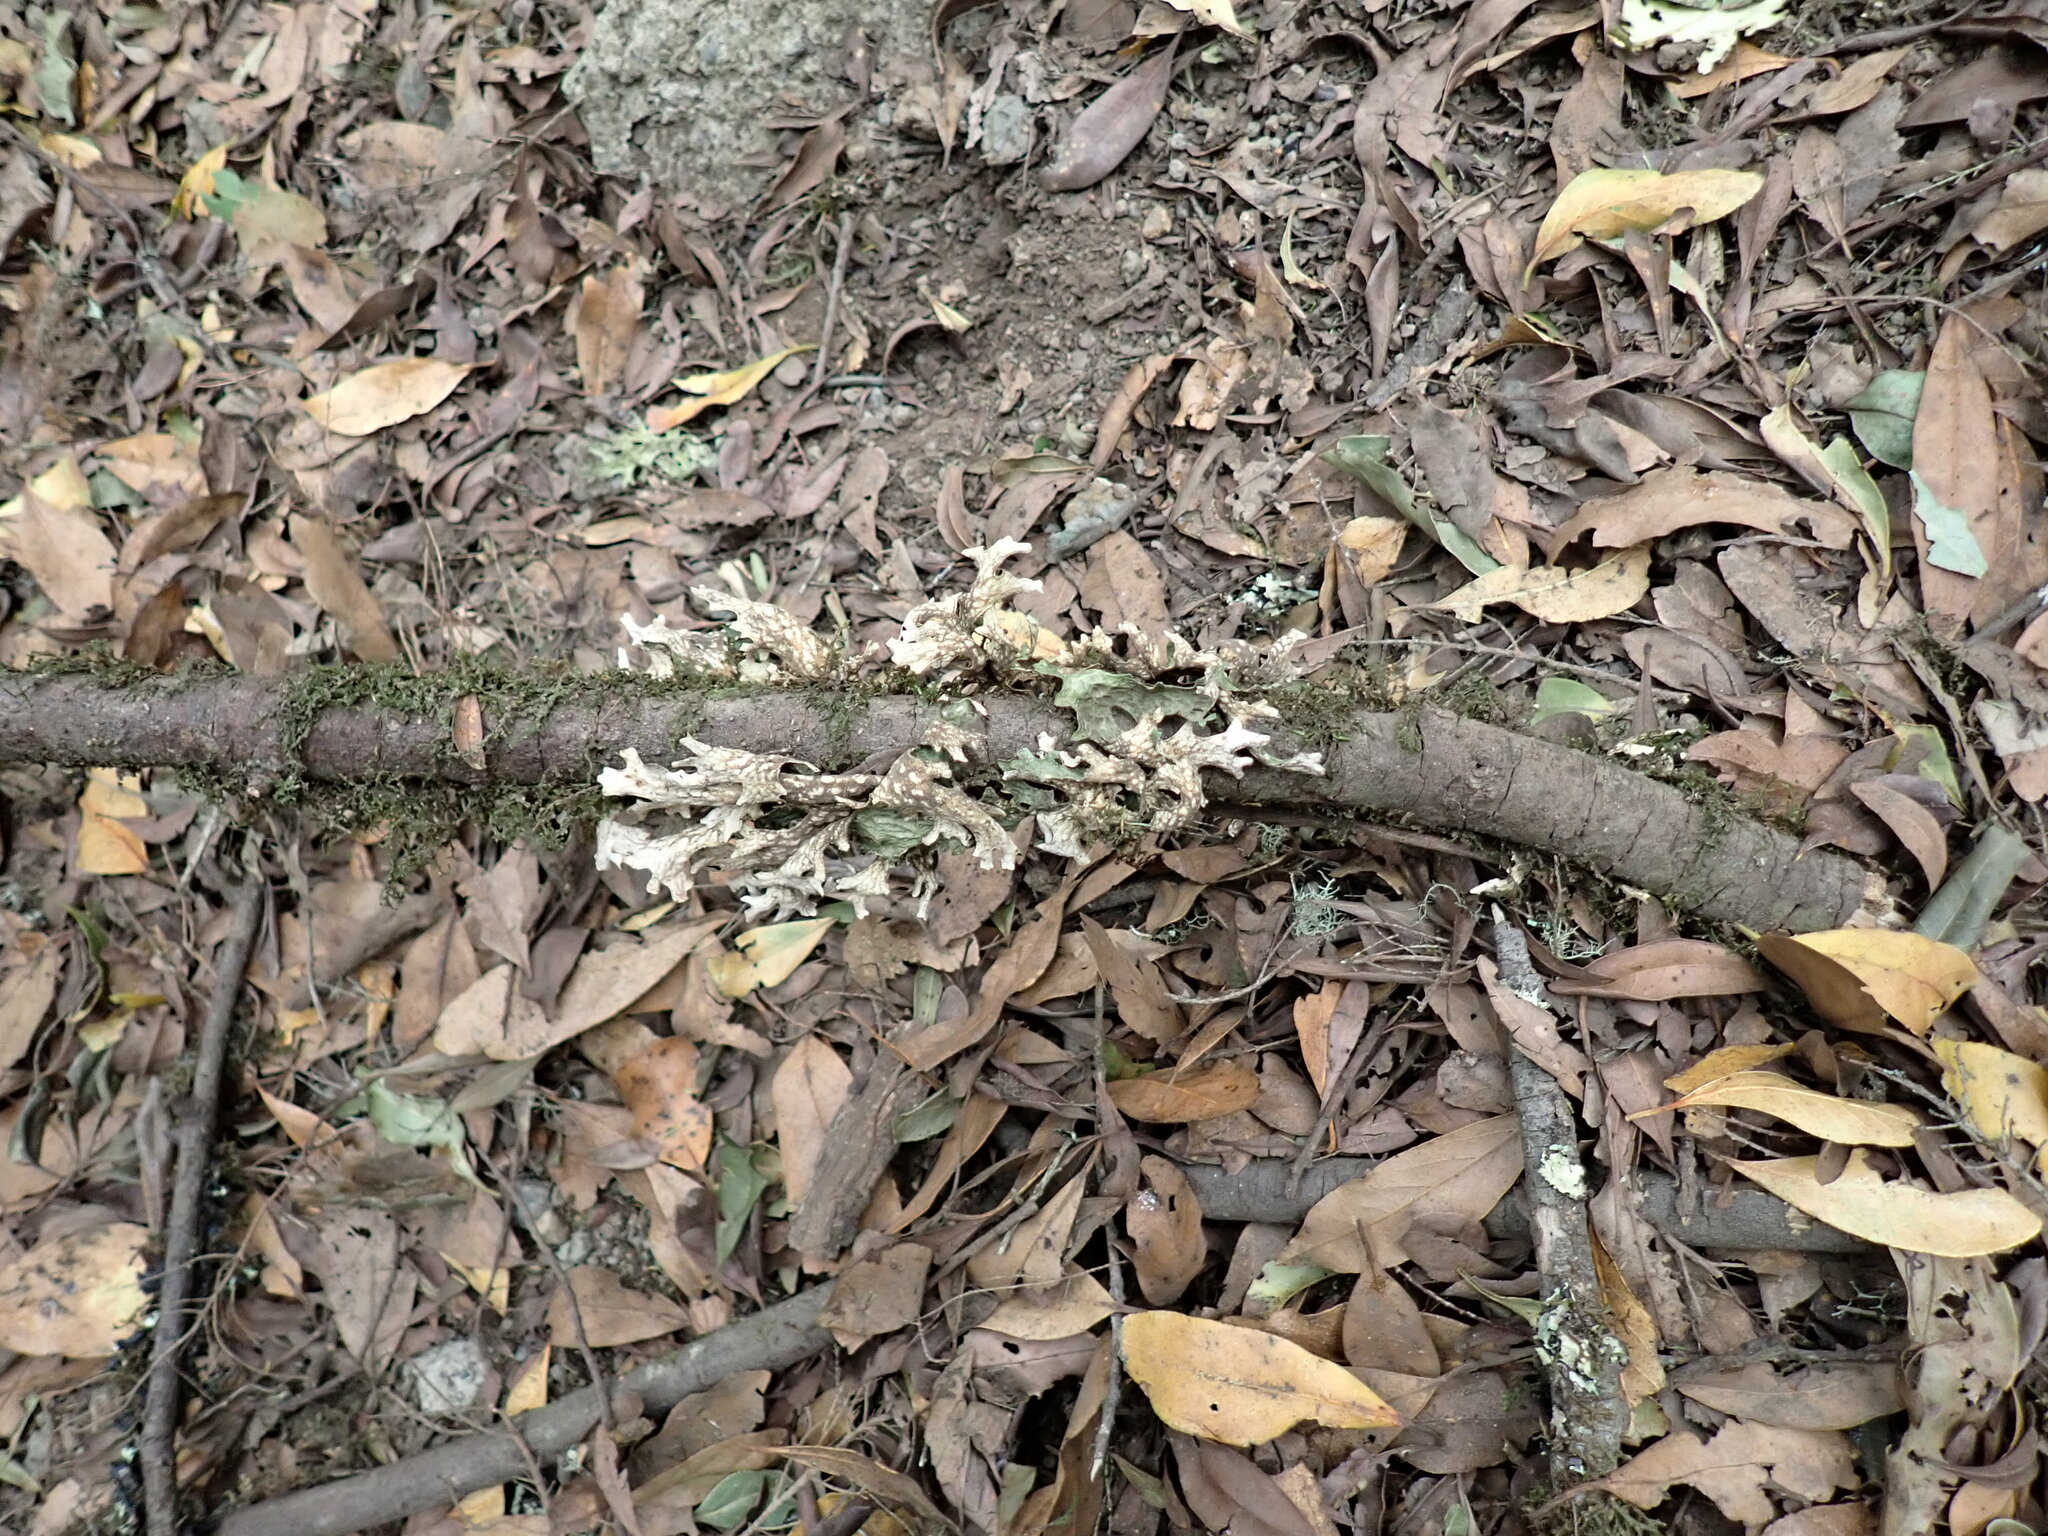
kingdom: Fungi
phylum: Ascomycota
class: Lecanoromycetes
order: Peltigerales
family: Lobariaceae
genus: Lobaria
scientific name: Lobaria pulmonaria
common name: Lungwort
